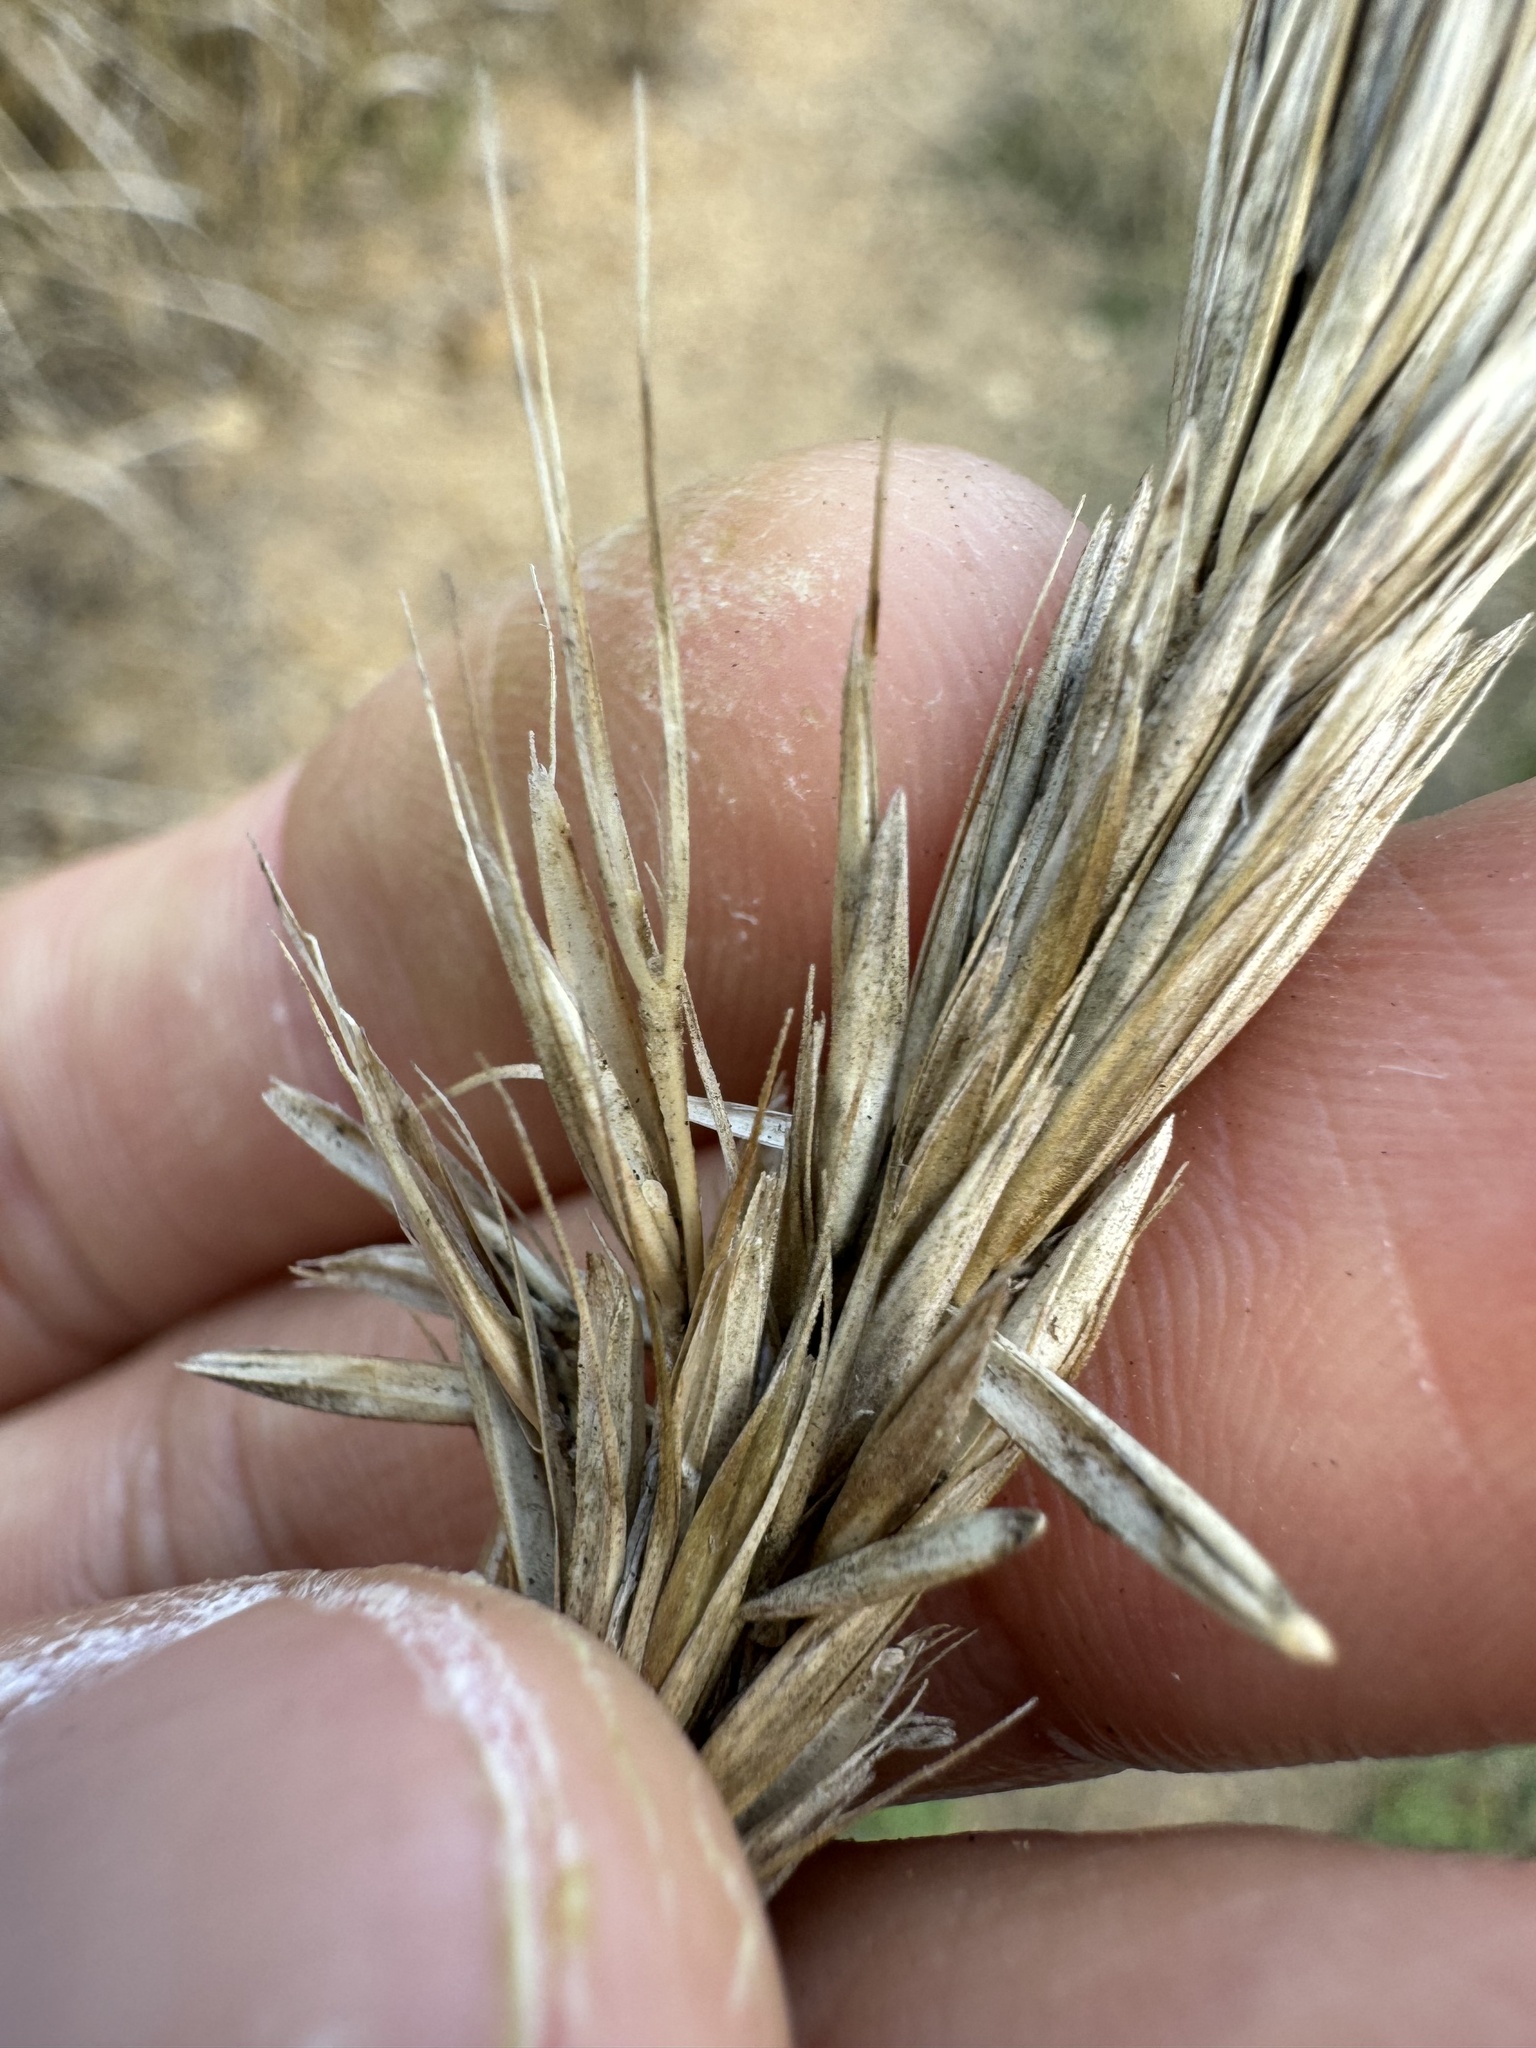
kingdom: Plantae
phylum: Tracheophyta
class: Liliopsida
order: Poales
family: Poaceae
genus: Leymus
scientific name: Leymus condensatus
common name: Giant wild rye
